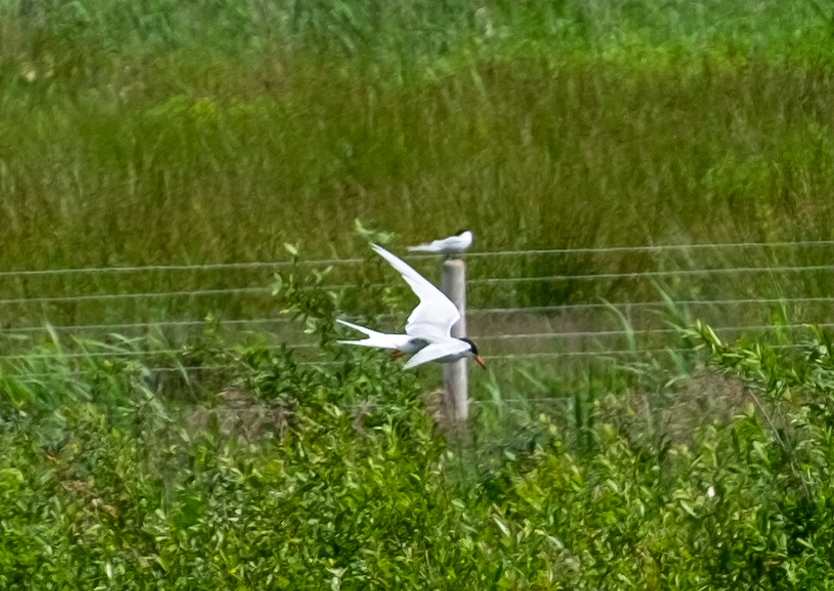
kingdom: Animalia
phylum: Chordata
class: Aves
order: Charadriiformes
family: Laridae
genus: Sterna
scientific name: Sterna hirundo
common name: Common tern
